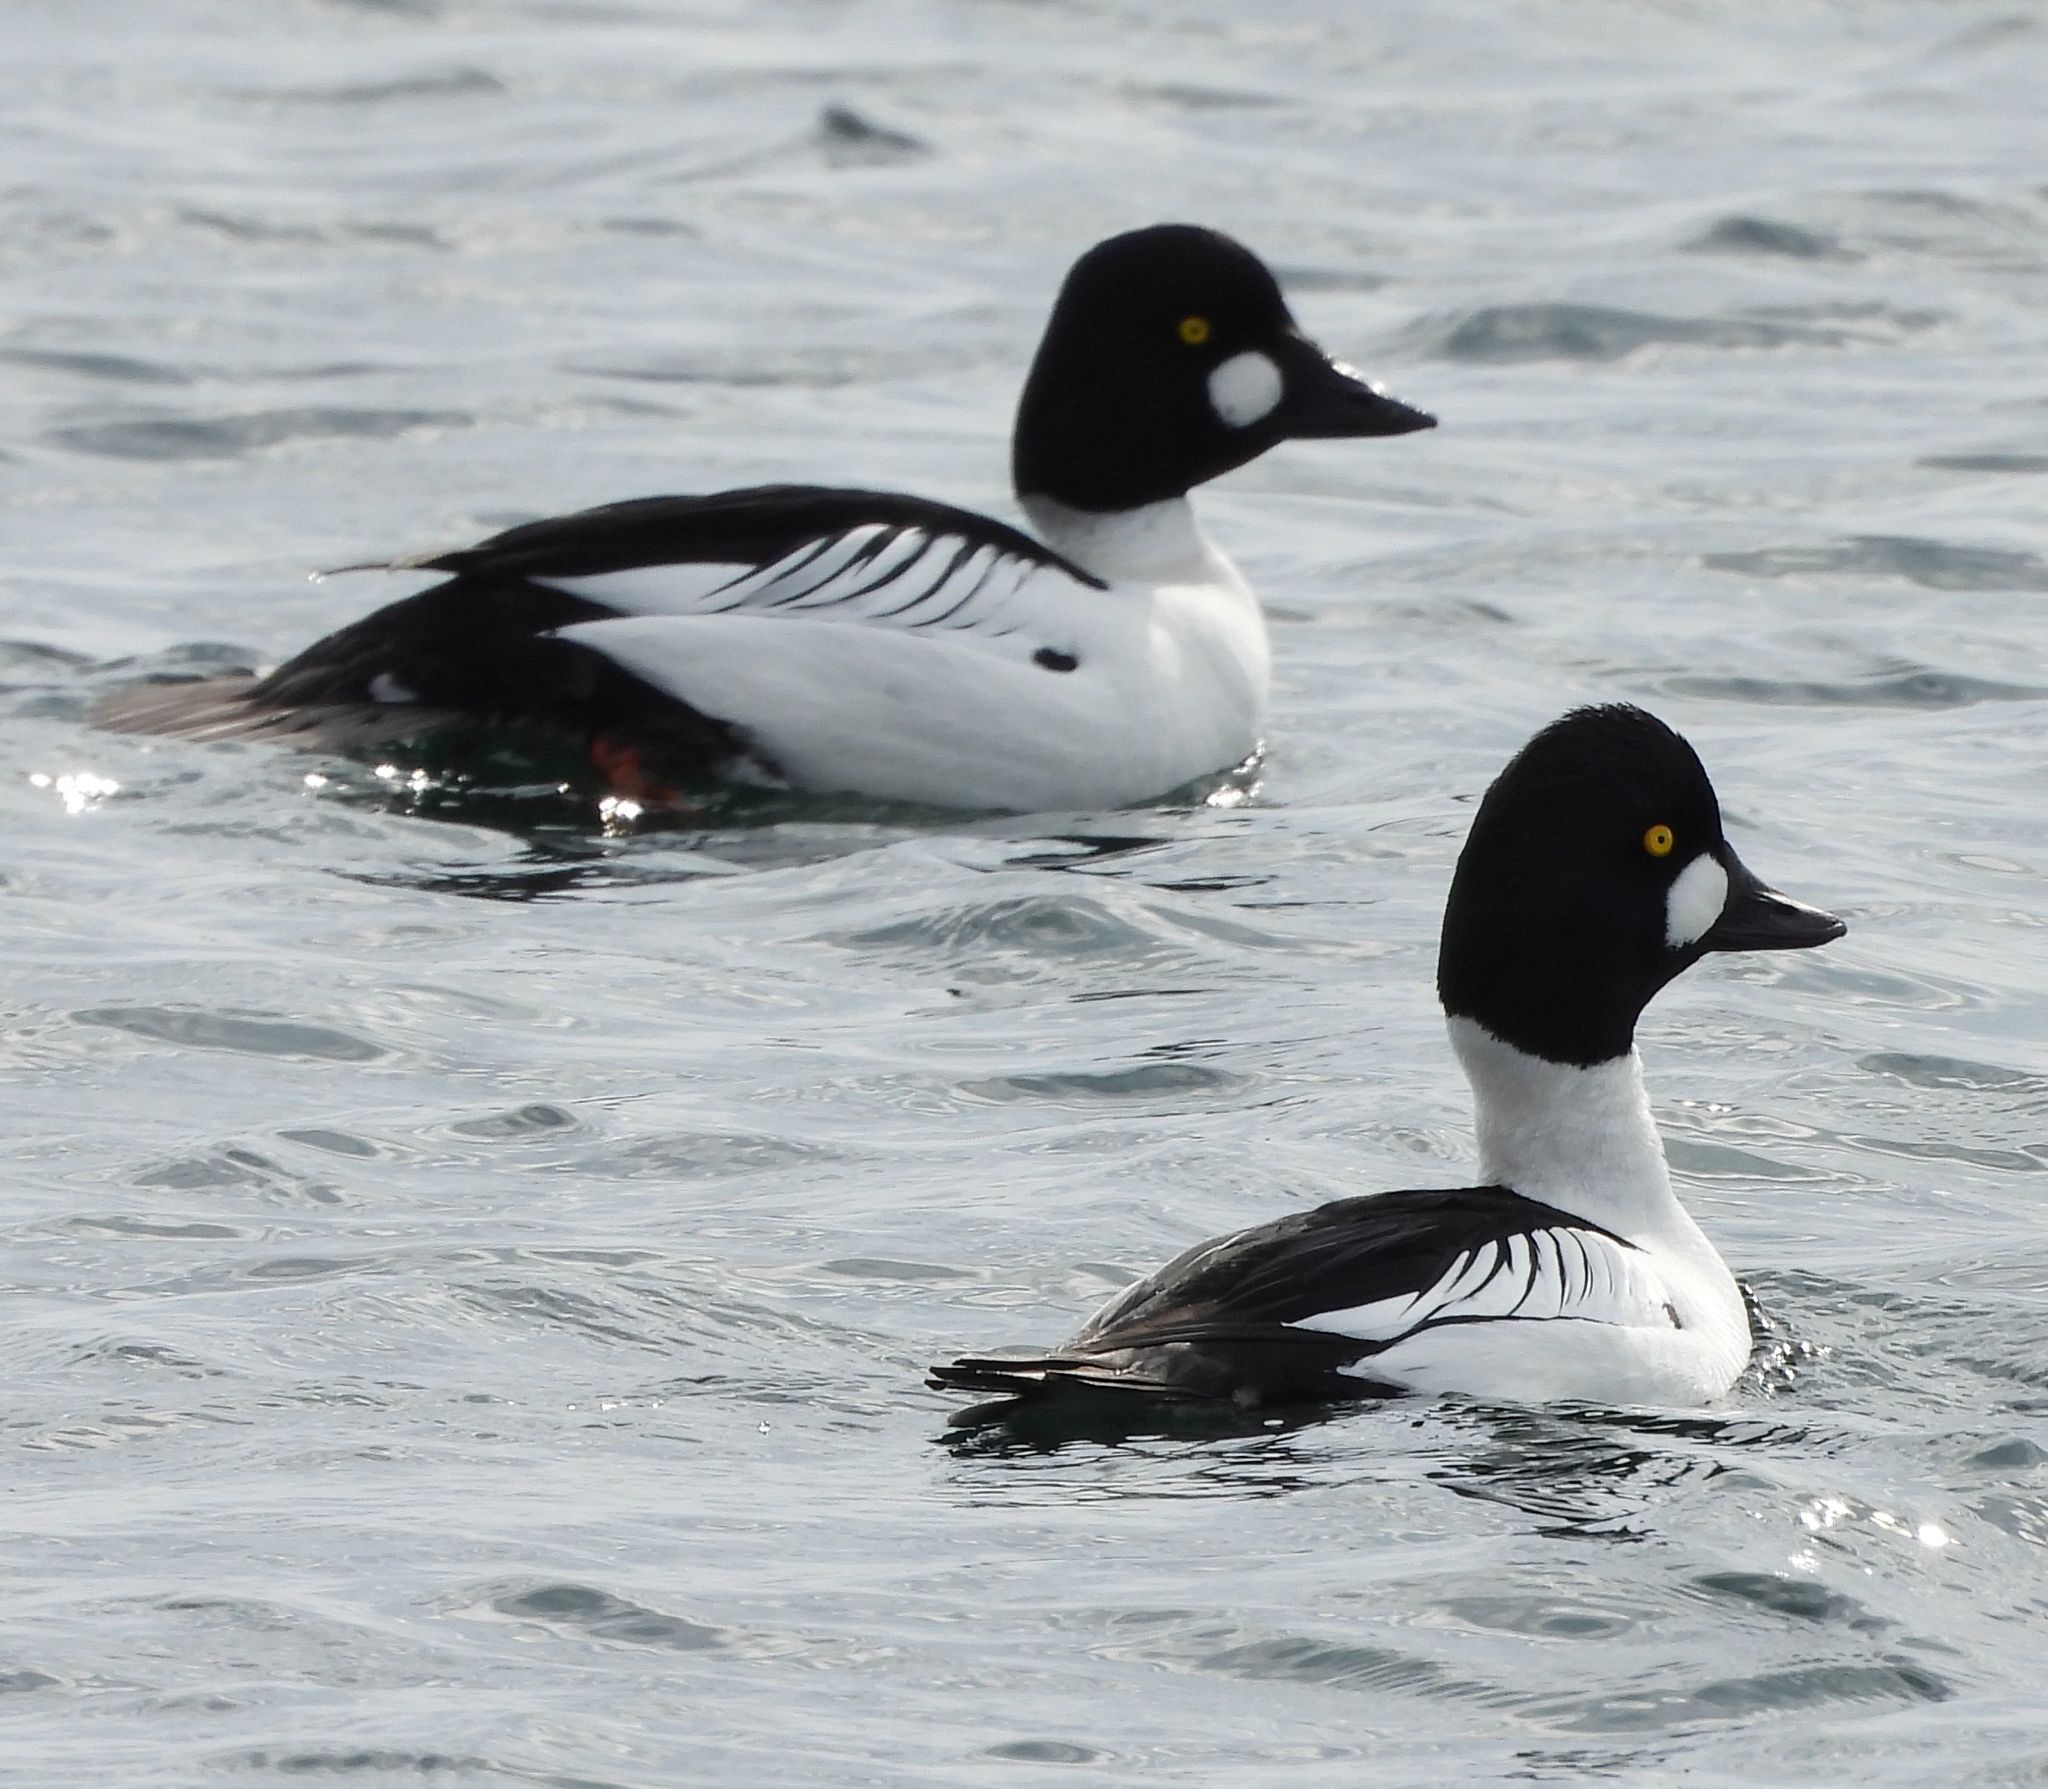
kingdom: Animalia
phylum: Chordata
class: Aves
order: Anseriformes
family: Anatidae
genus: Bucephala
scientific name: Bucephala clangula
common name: Common goldeneye
